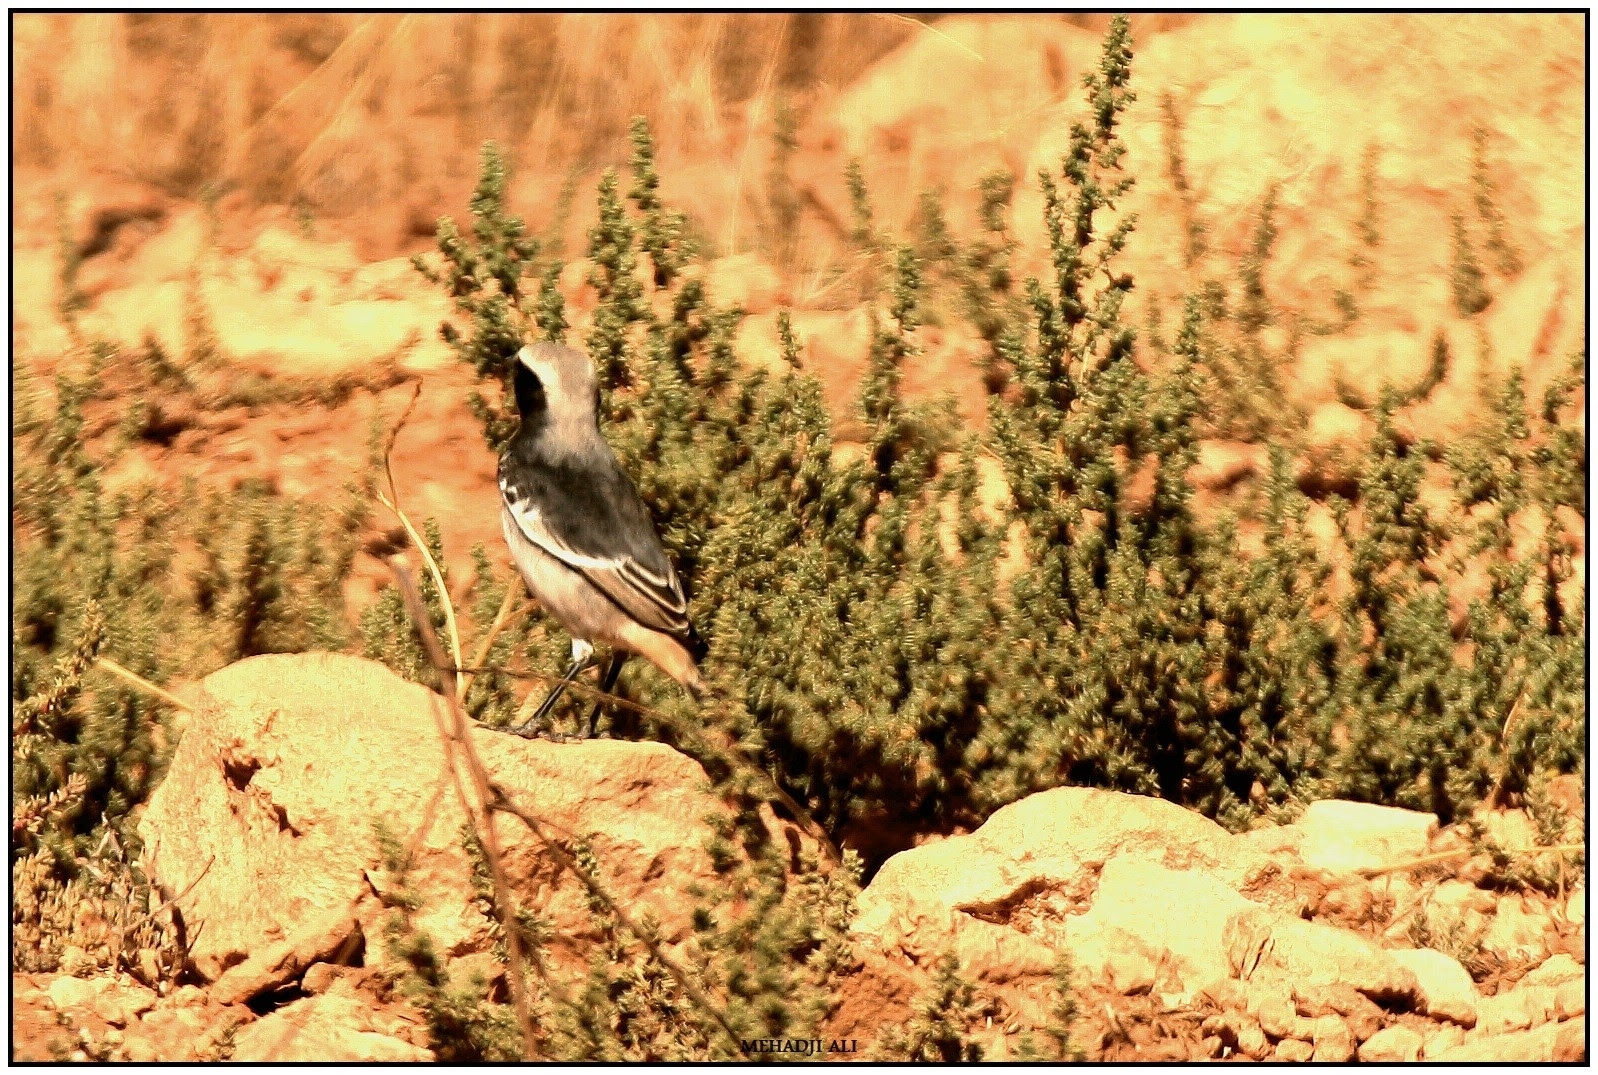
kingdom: Animalia
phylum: Chordata
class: Aves
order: Passeriformes
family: Muscicapidae
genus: Oenanthe
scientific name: Oenanthe moesta
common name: Red-rumped wheatear
